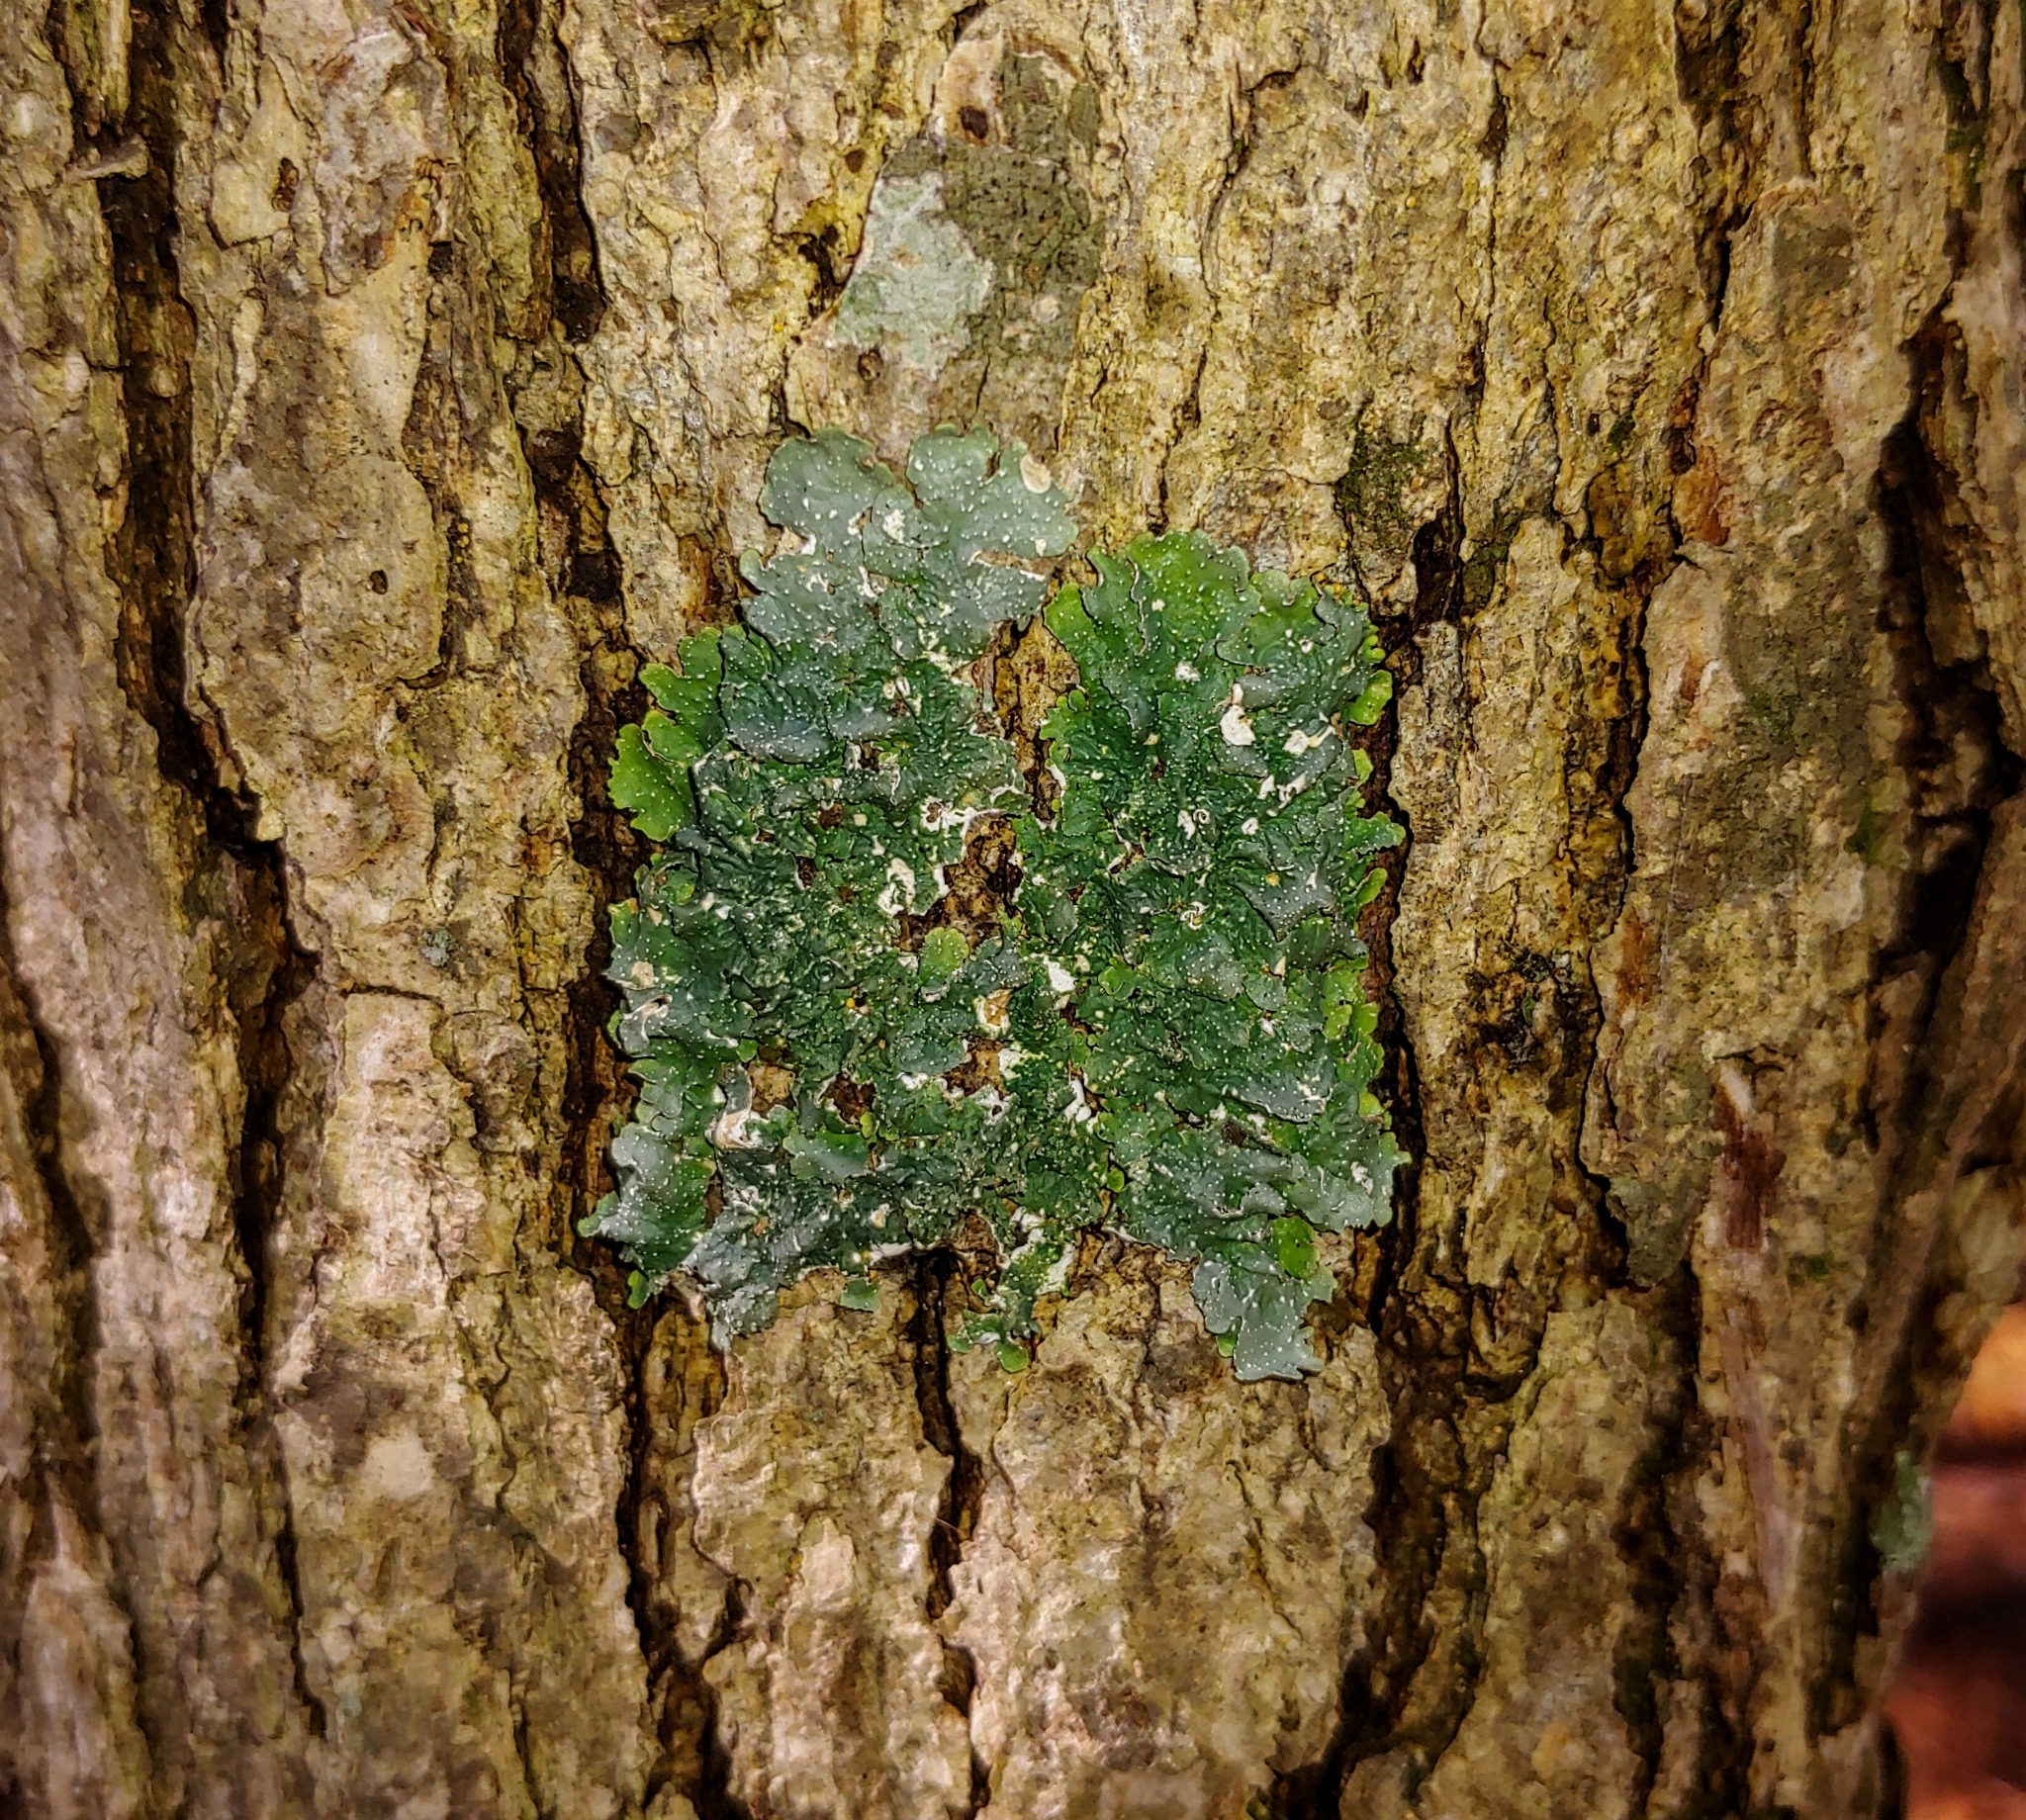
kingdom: Fungi
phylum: Ascomycota
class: Lecanoromycetes
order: Lecanorales
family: Parmeliaceae
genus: Punctelia
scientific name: Punctelia rudecta
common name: Rough speckled shield lichen
